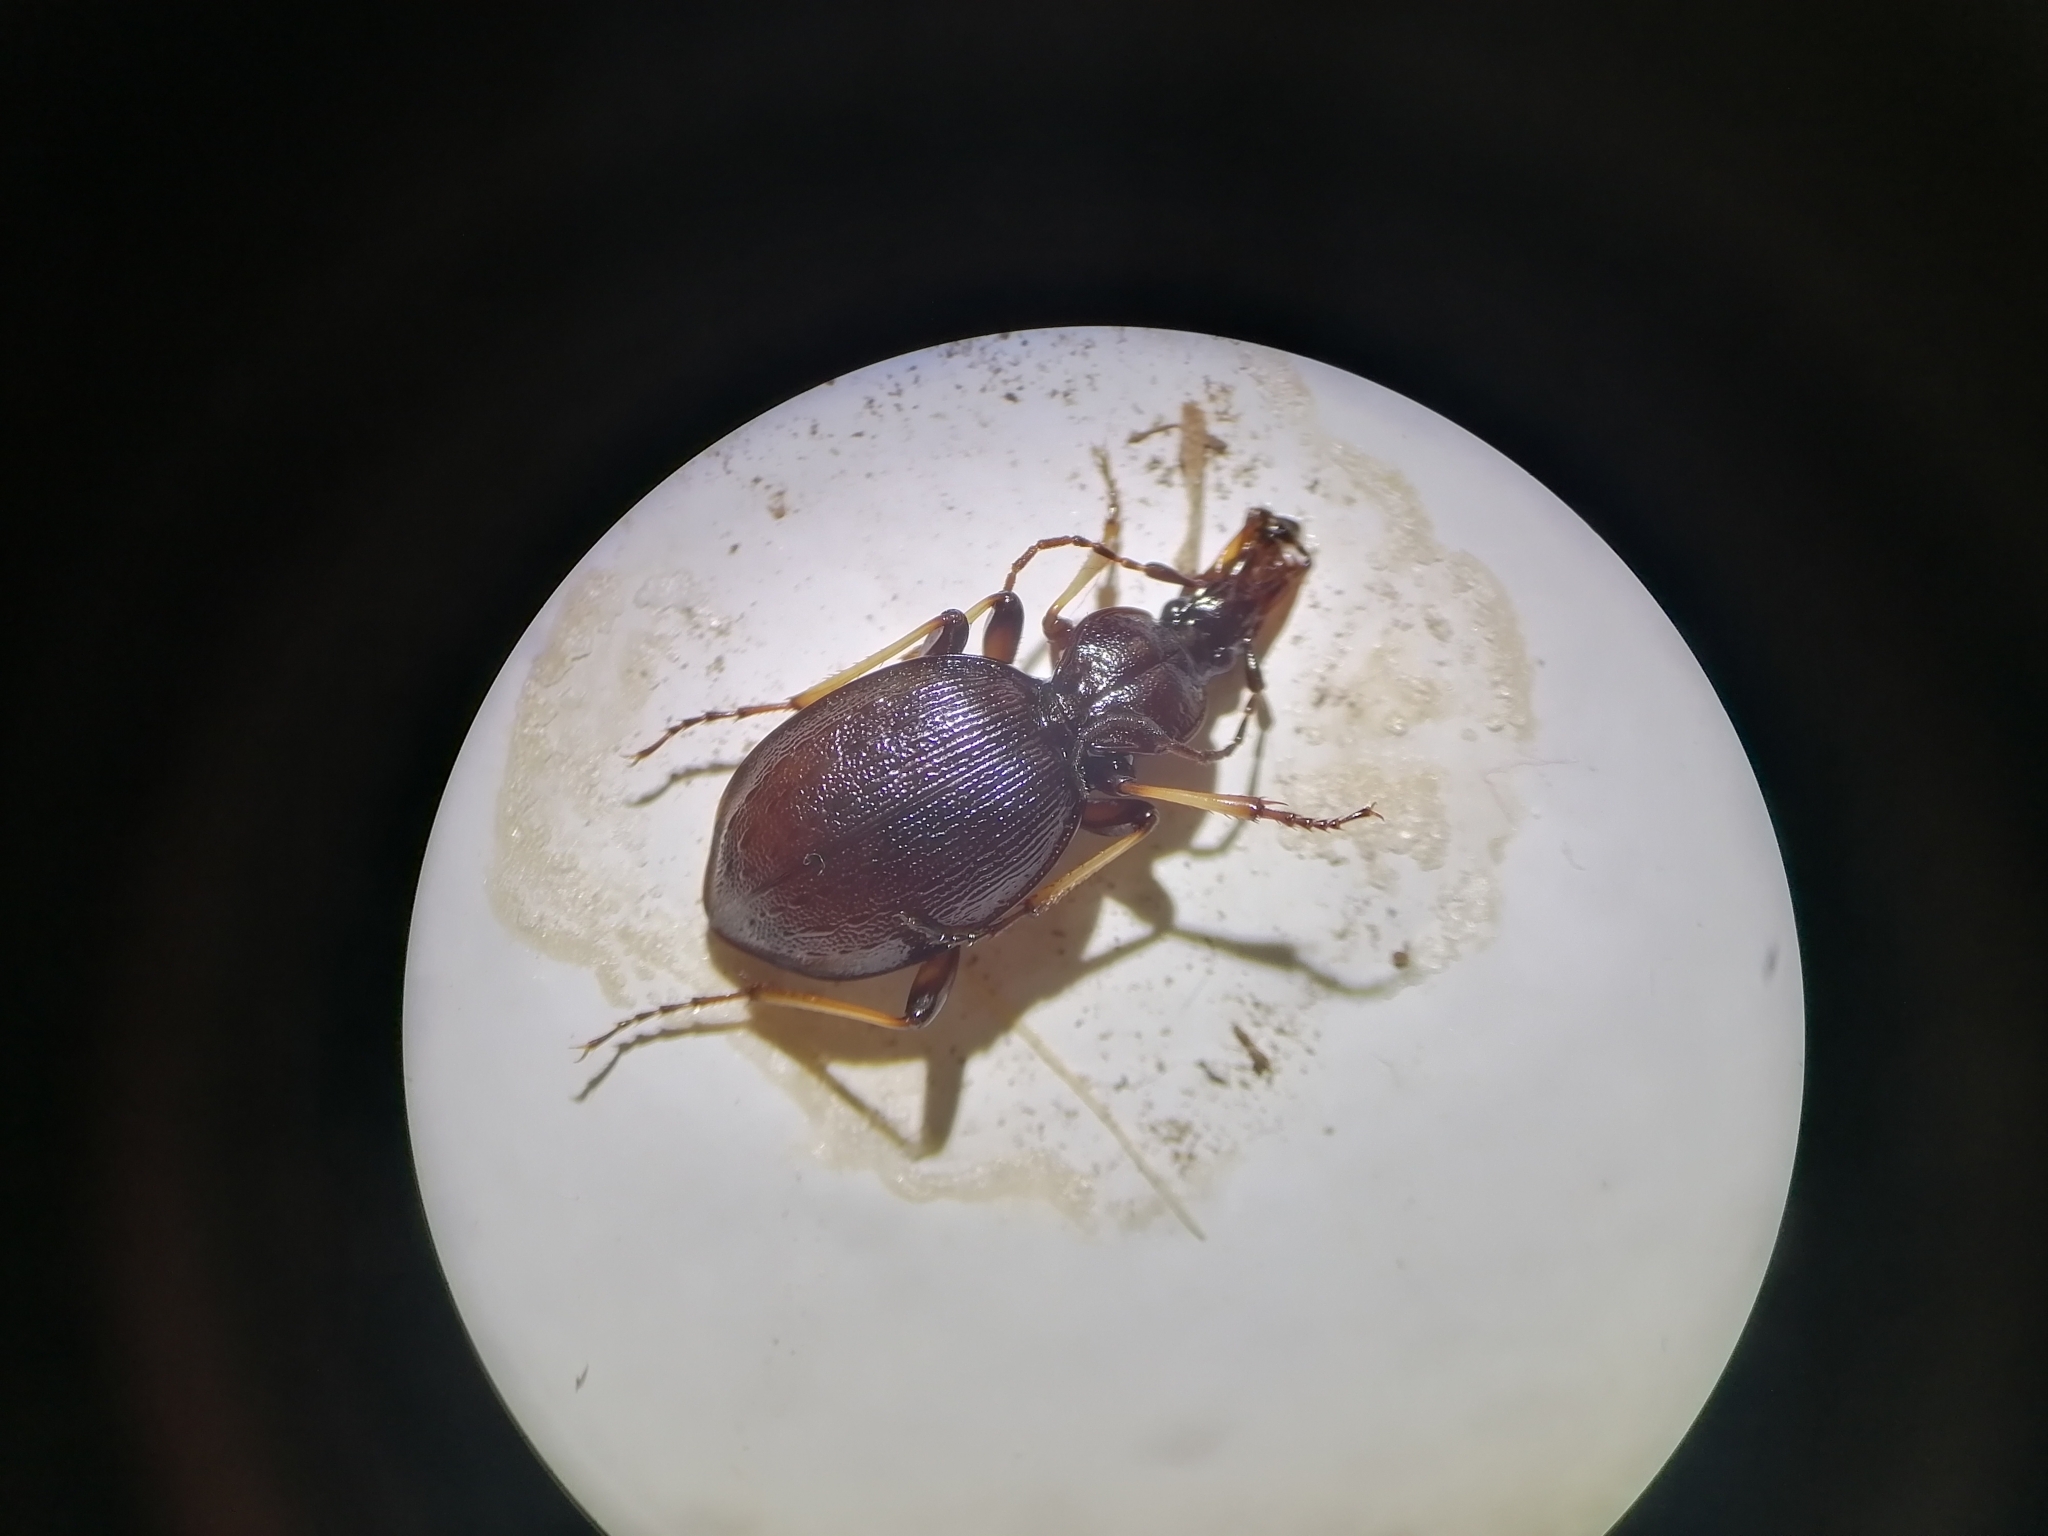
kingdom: Animalia
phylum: Arthropoda
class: Insecta
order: Coleoptera
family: Carabidae
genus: Cychrus
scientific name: Cychrus attenuatus
